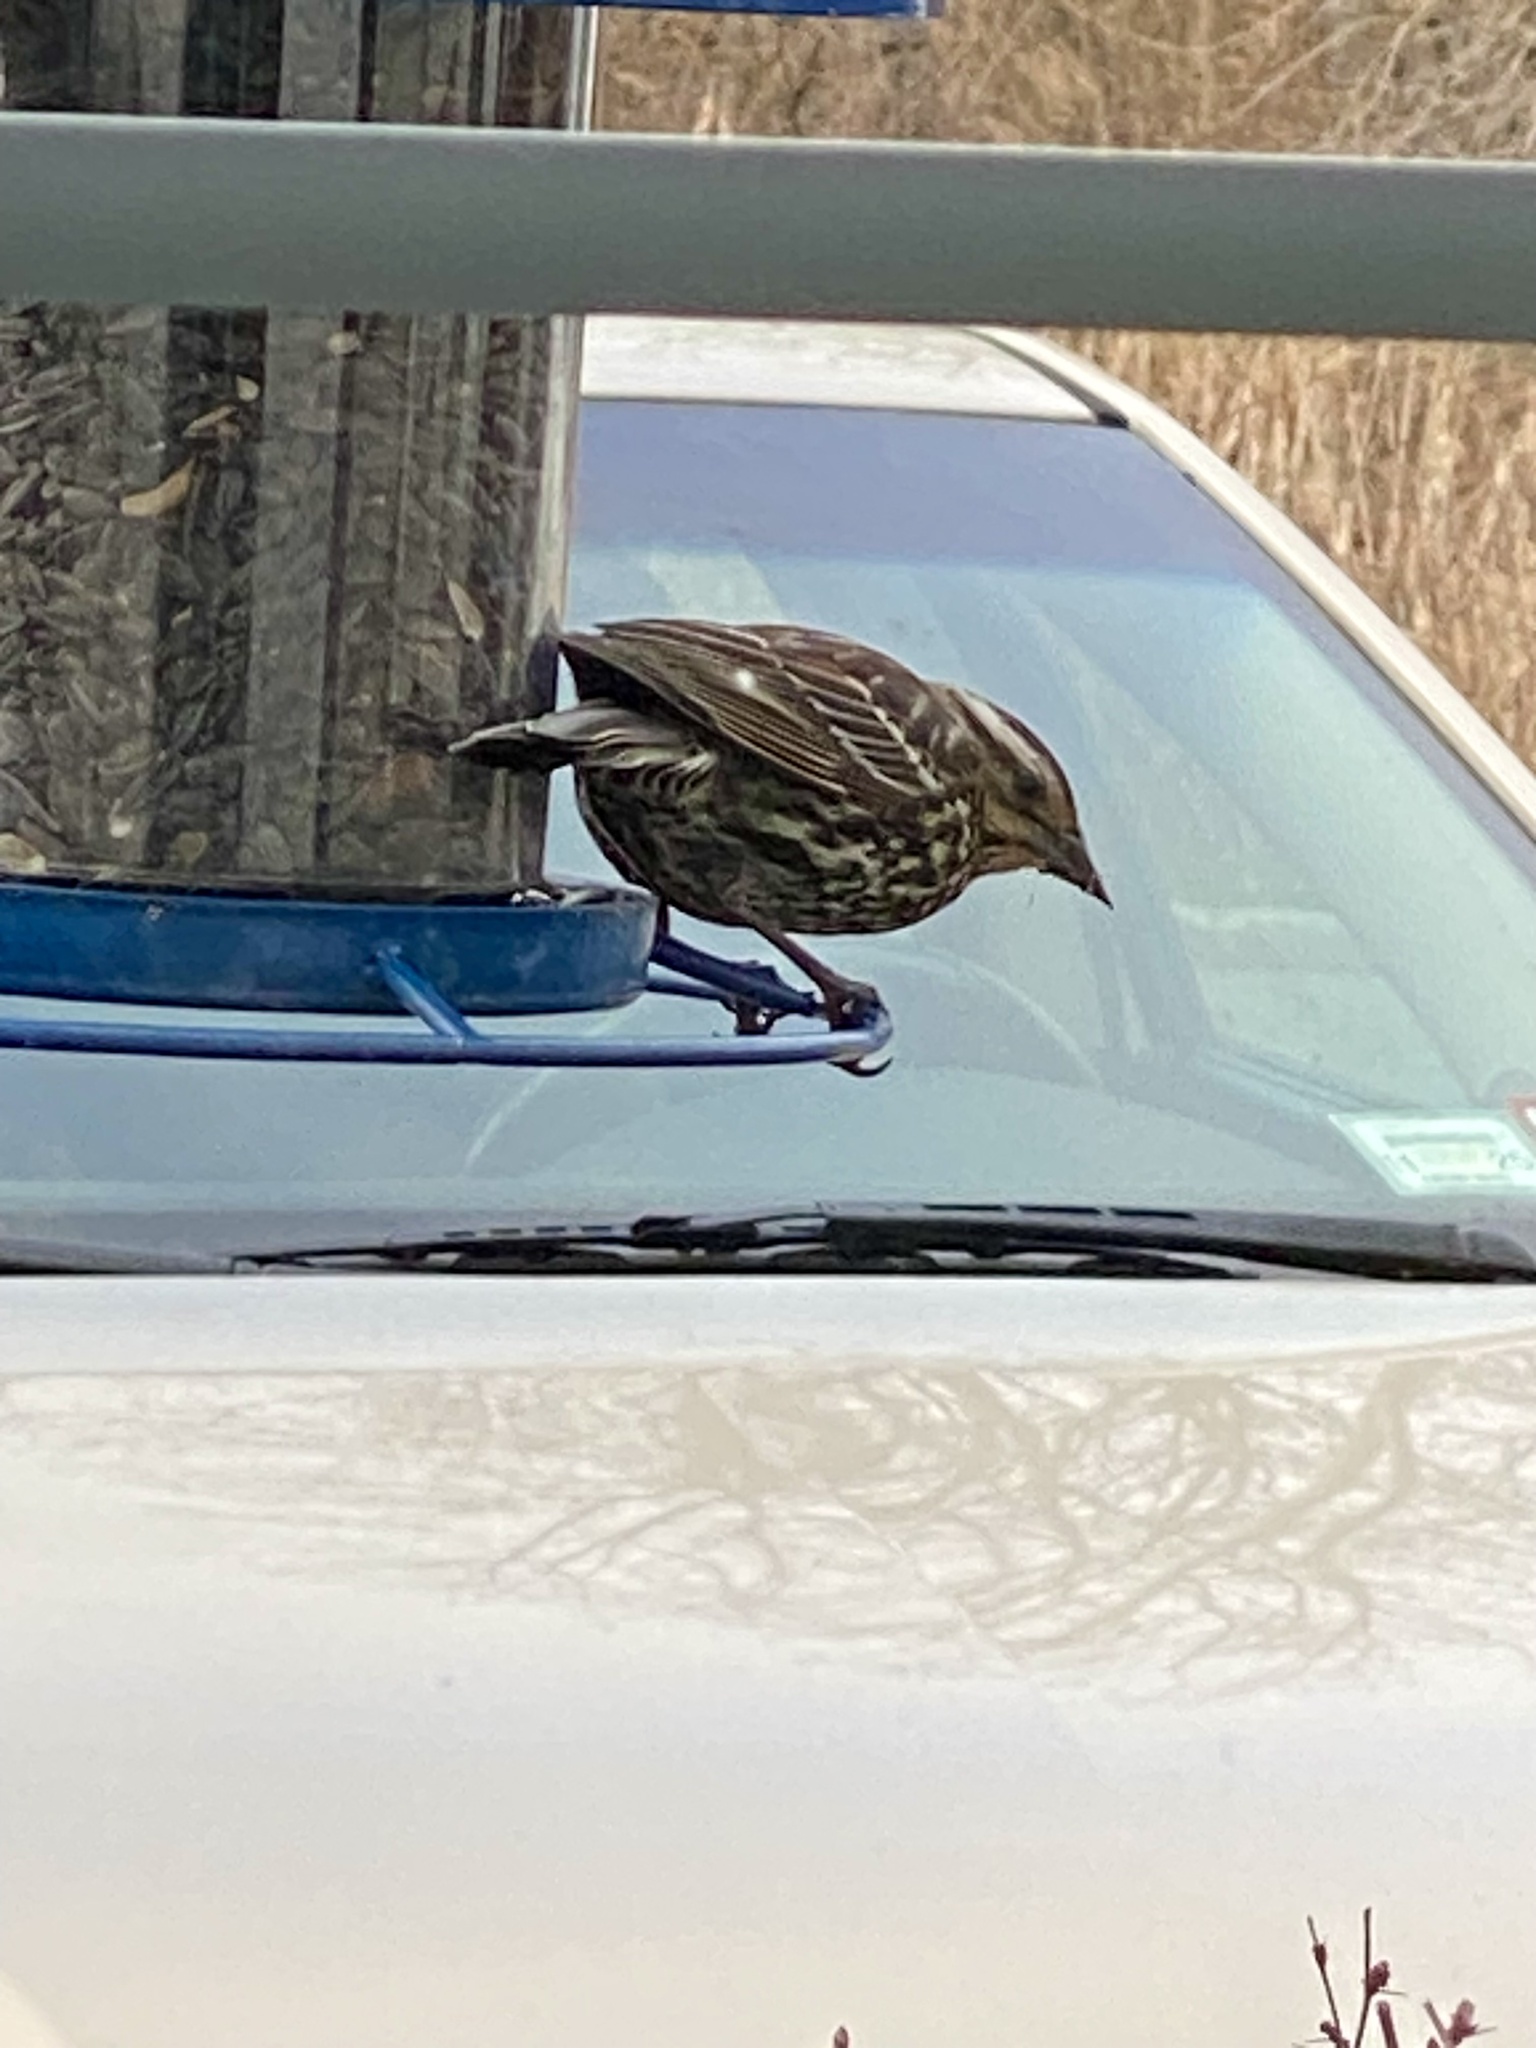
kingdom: Animalia
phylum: Chordata
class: Aves
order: Passeriformes
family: Icteridae
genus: Agelaius
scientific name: Agelaius phoeniceus
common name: Red-winged blackbird
